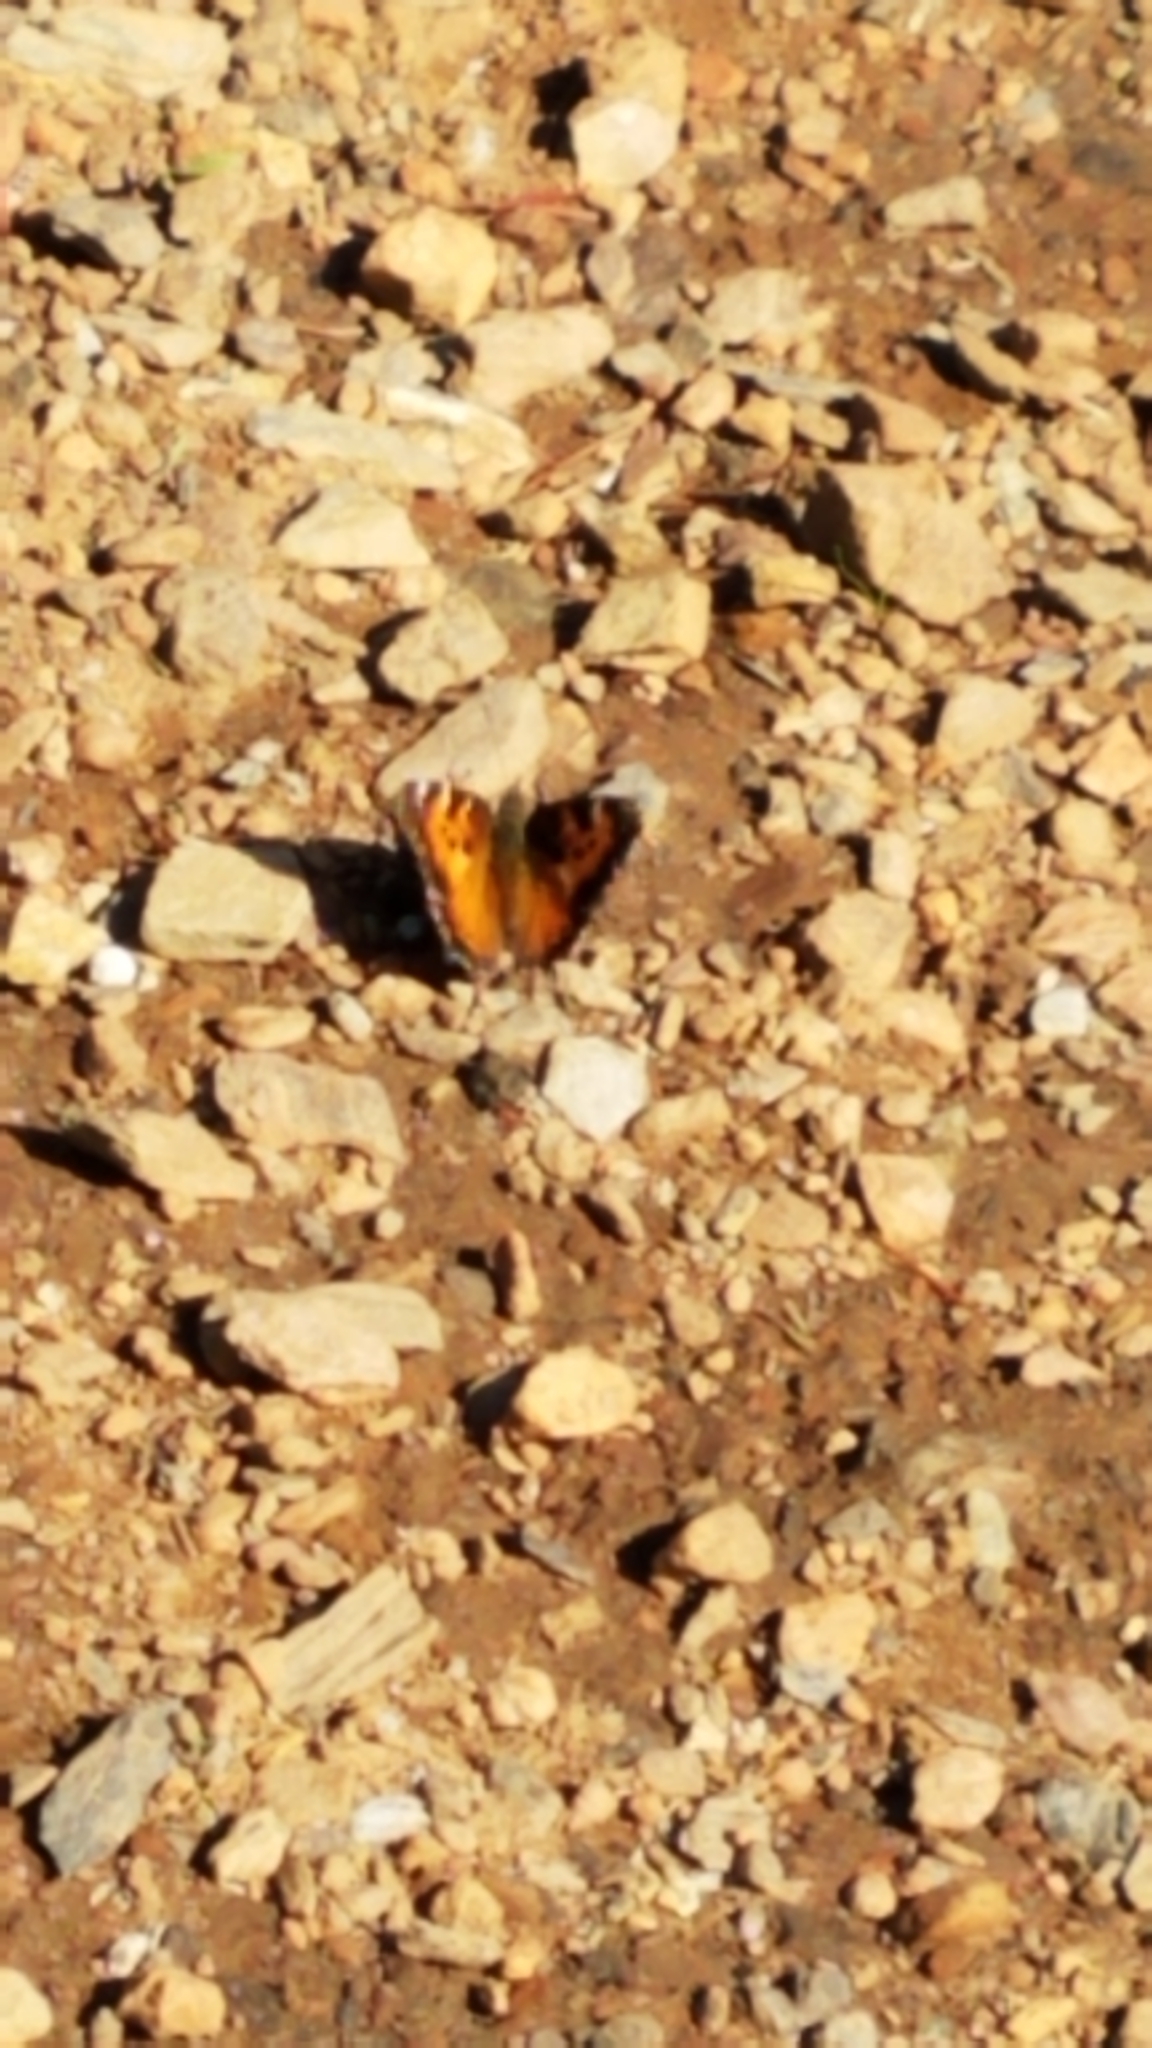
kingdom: Animalia
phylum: Arthropoda
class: Insecta
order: Lepidoptera
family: Nymphalidae
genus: Nymphalis
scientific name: Nymphalis californica
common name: California tortoiseshell
